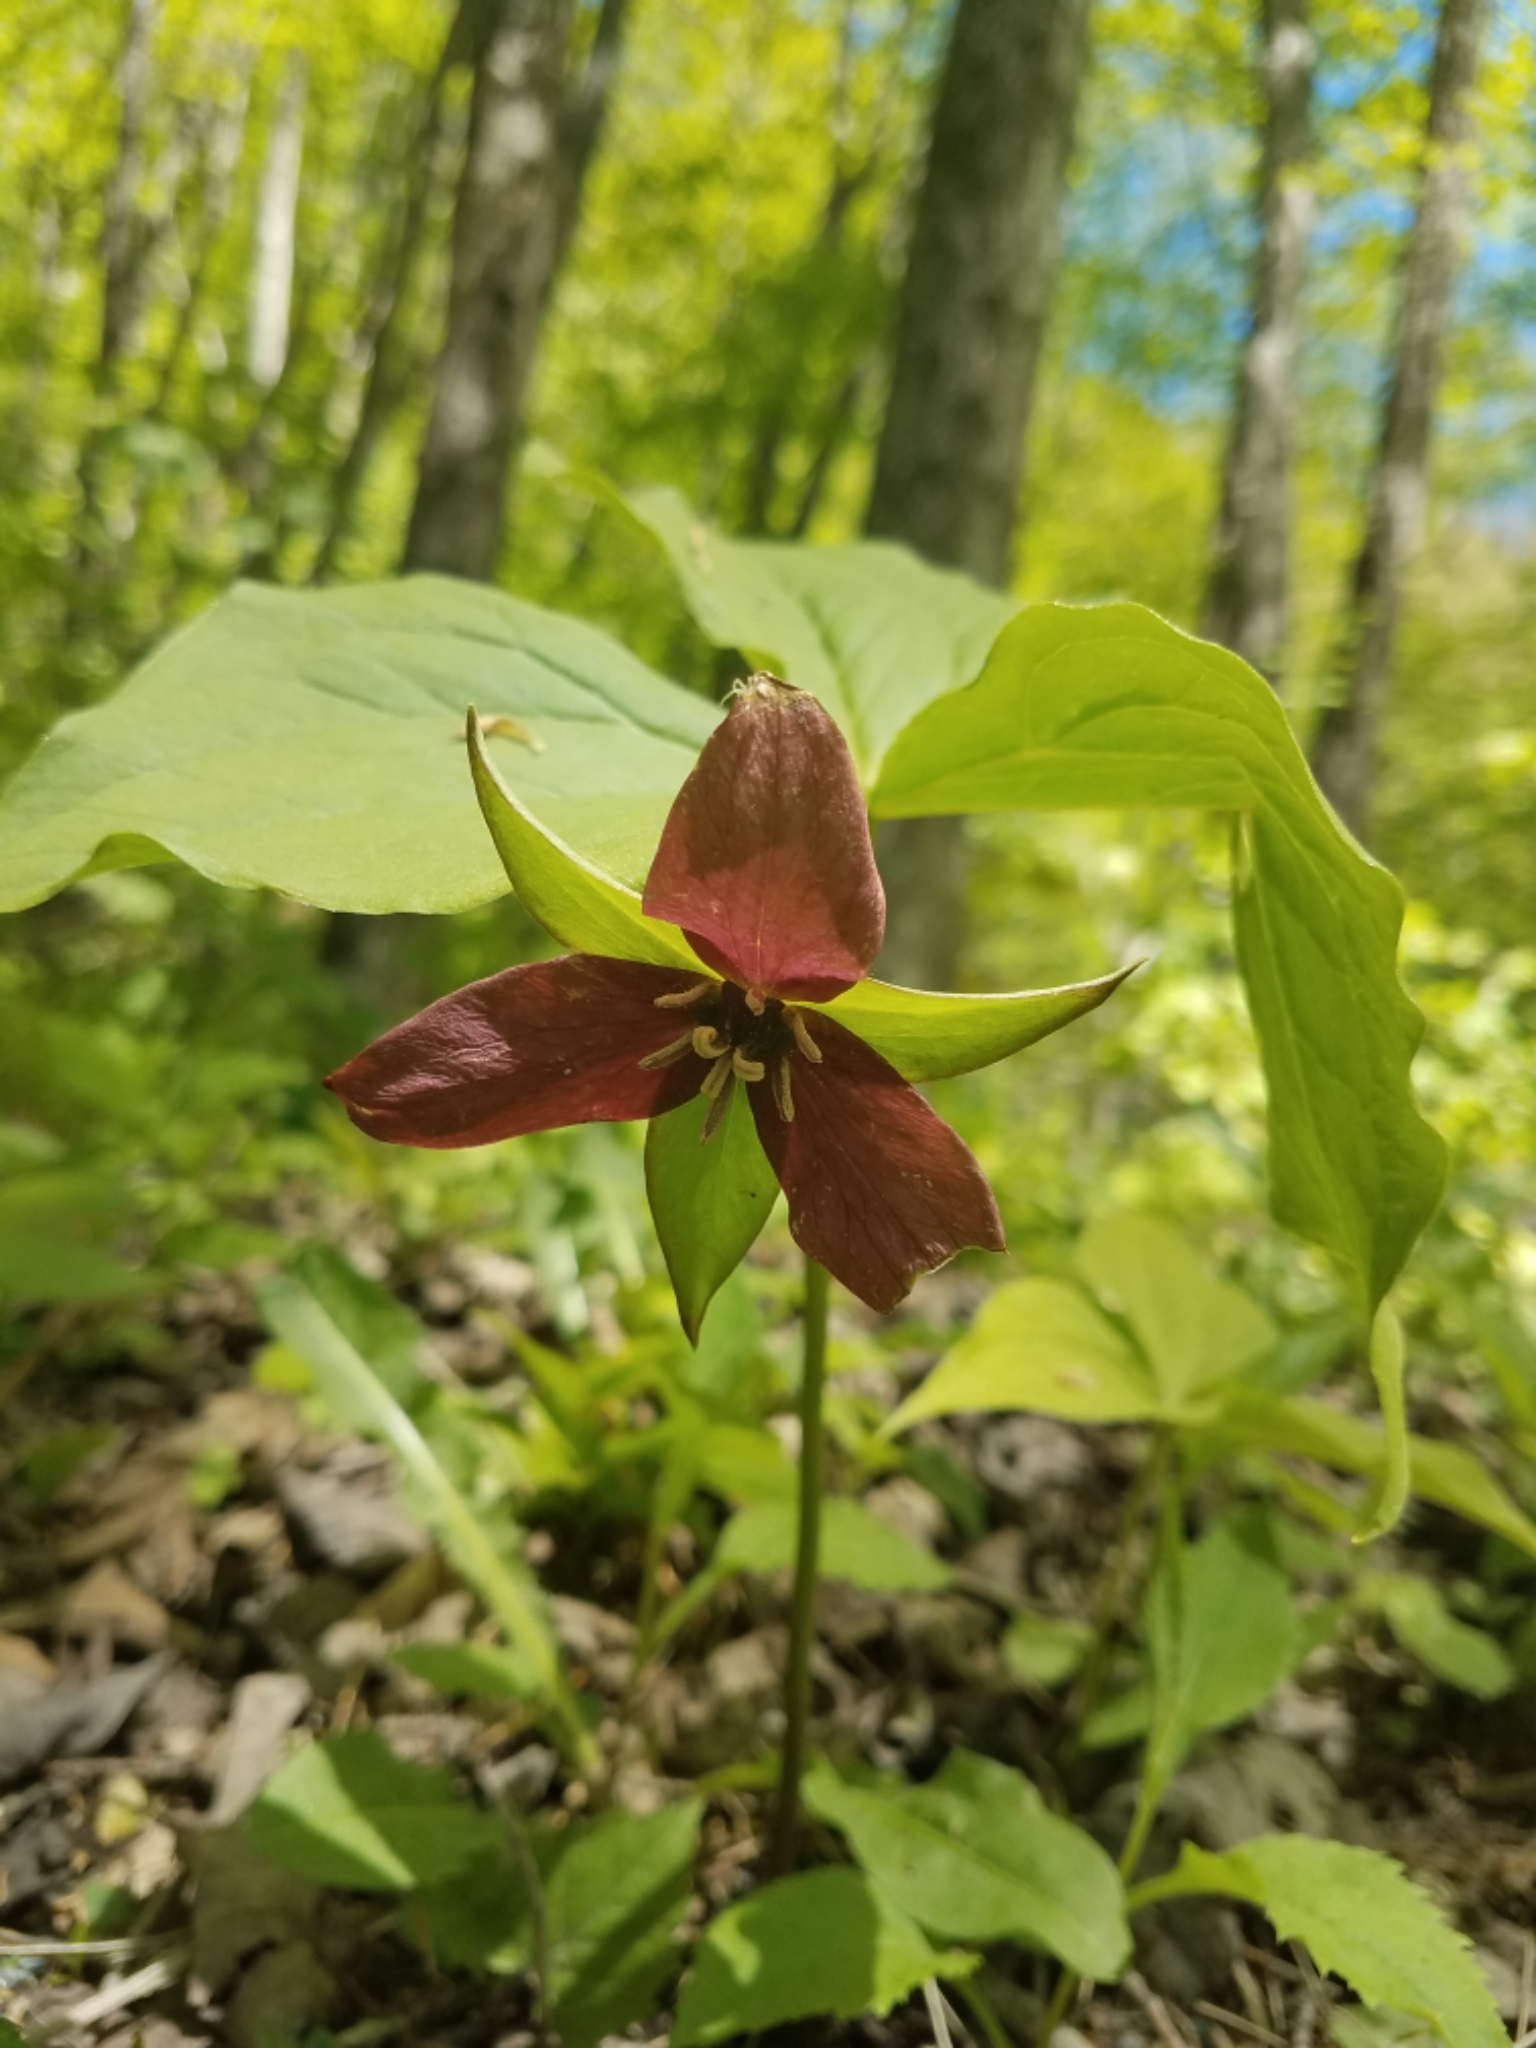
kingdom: Plantae
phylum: Tracheophyta
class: Liliopsida
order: Liliales
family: Melanthiaceae
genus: Trillium
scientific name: Trillium erectum
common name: Purple trillium
